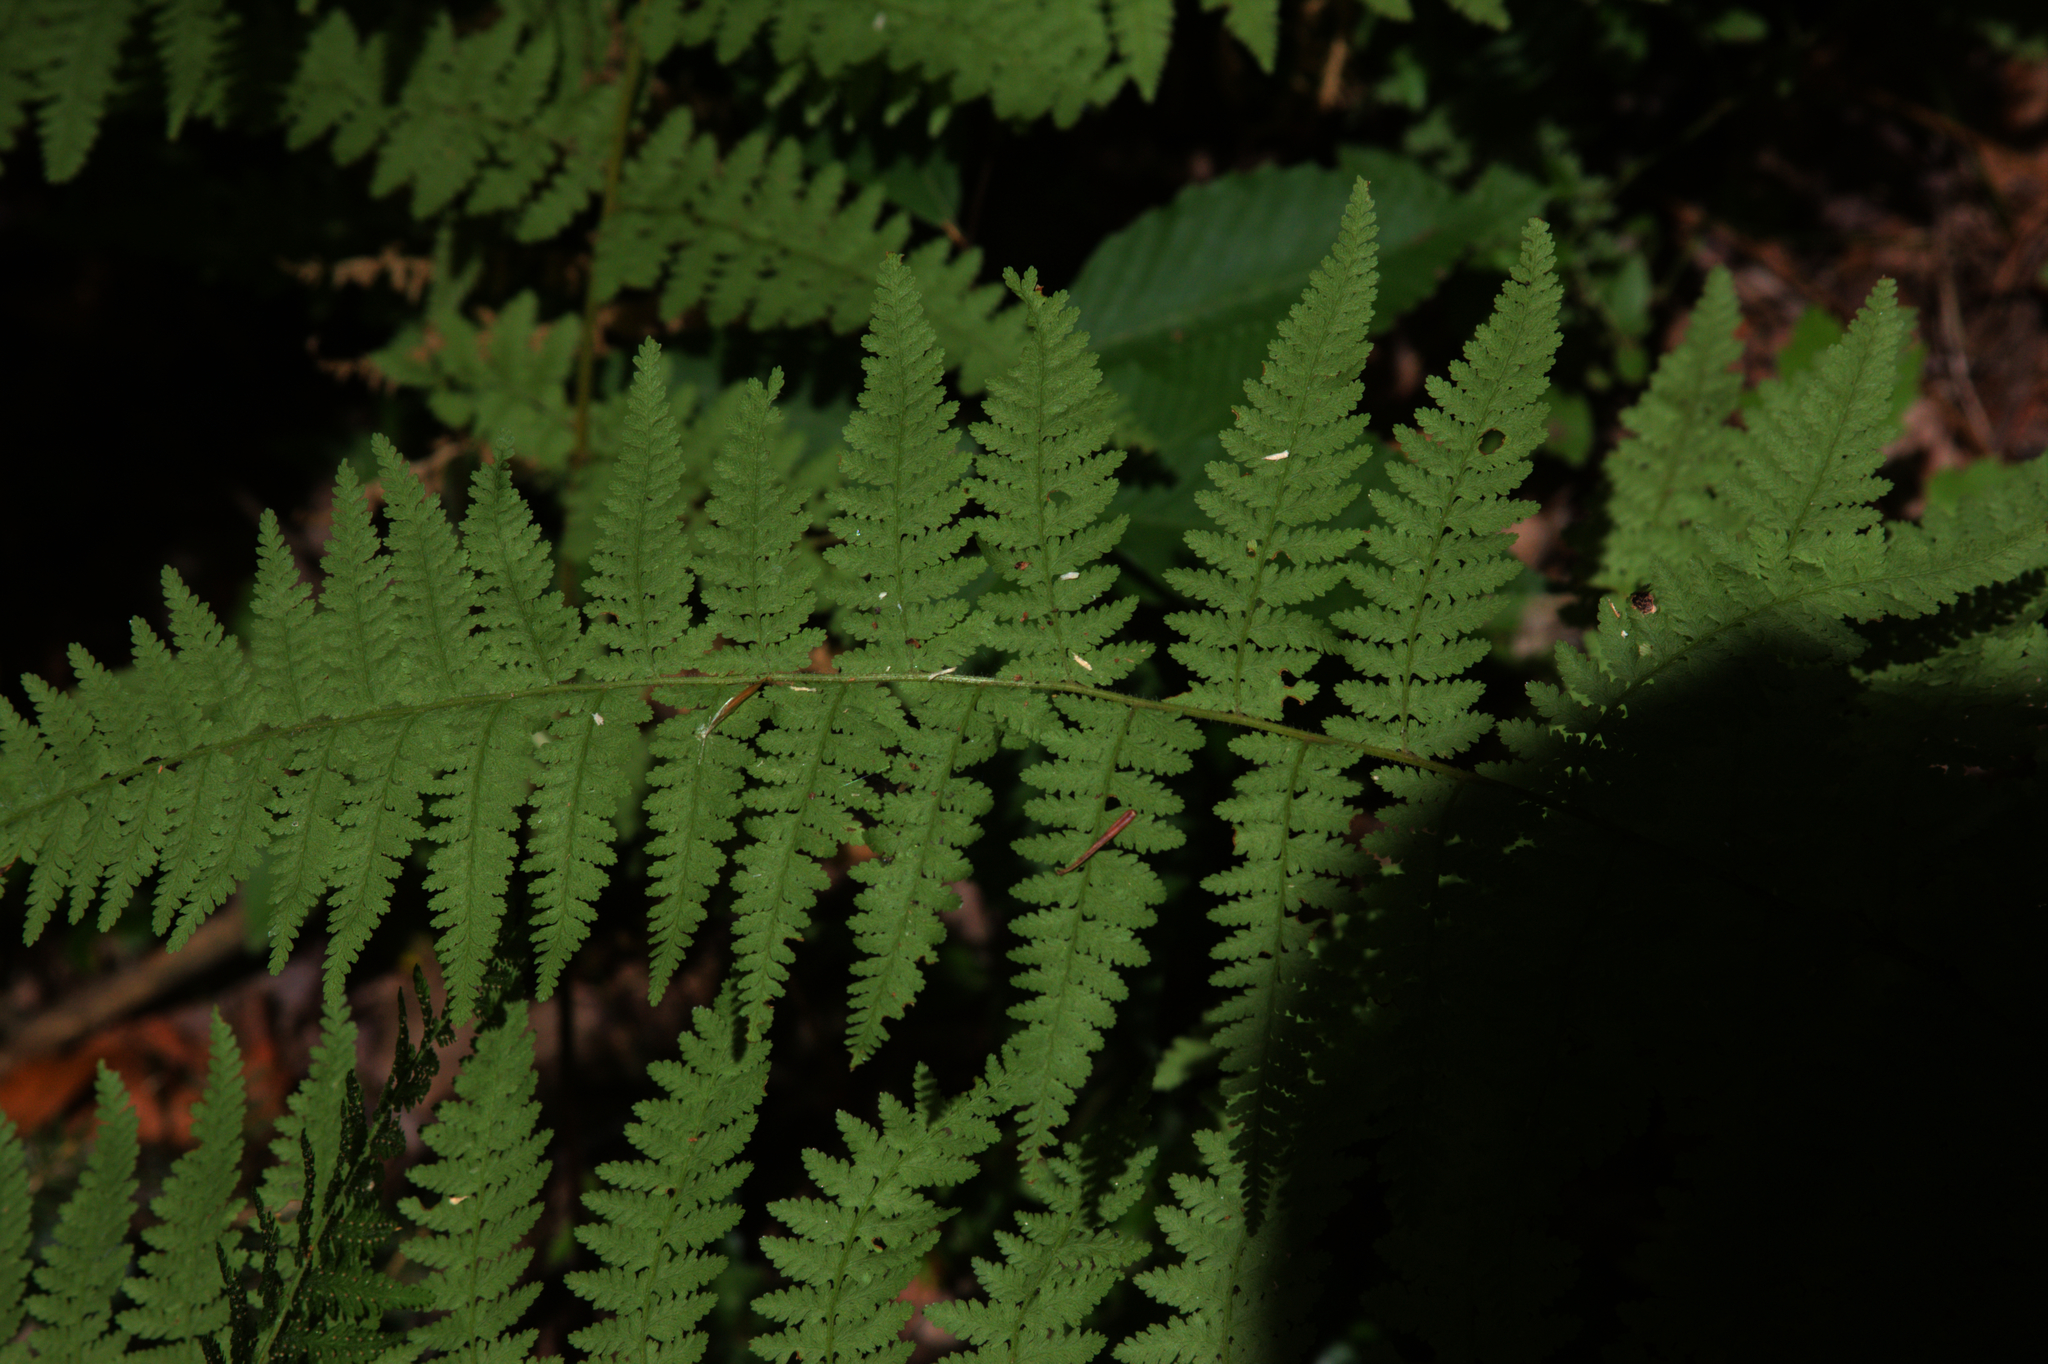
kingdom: Plantae
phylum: Tracheophyta
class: Polypodiopsida
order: Polypodiales
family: Dennstaedtiaceae
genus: Sitobolium
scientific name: Sitobolium punctilobum
